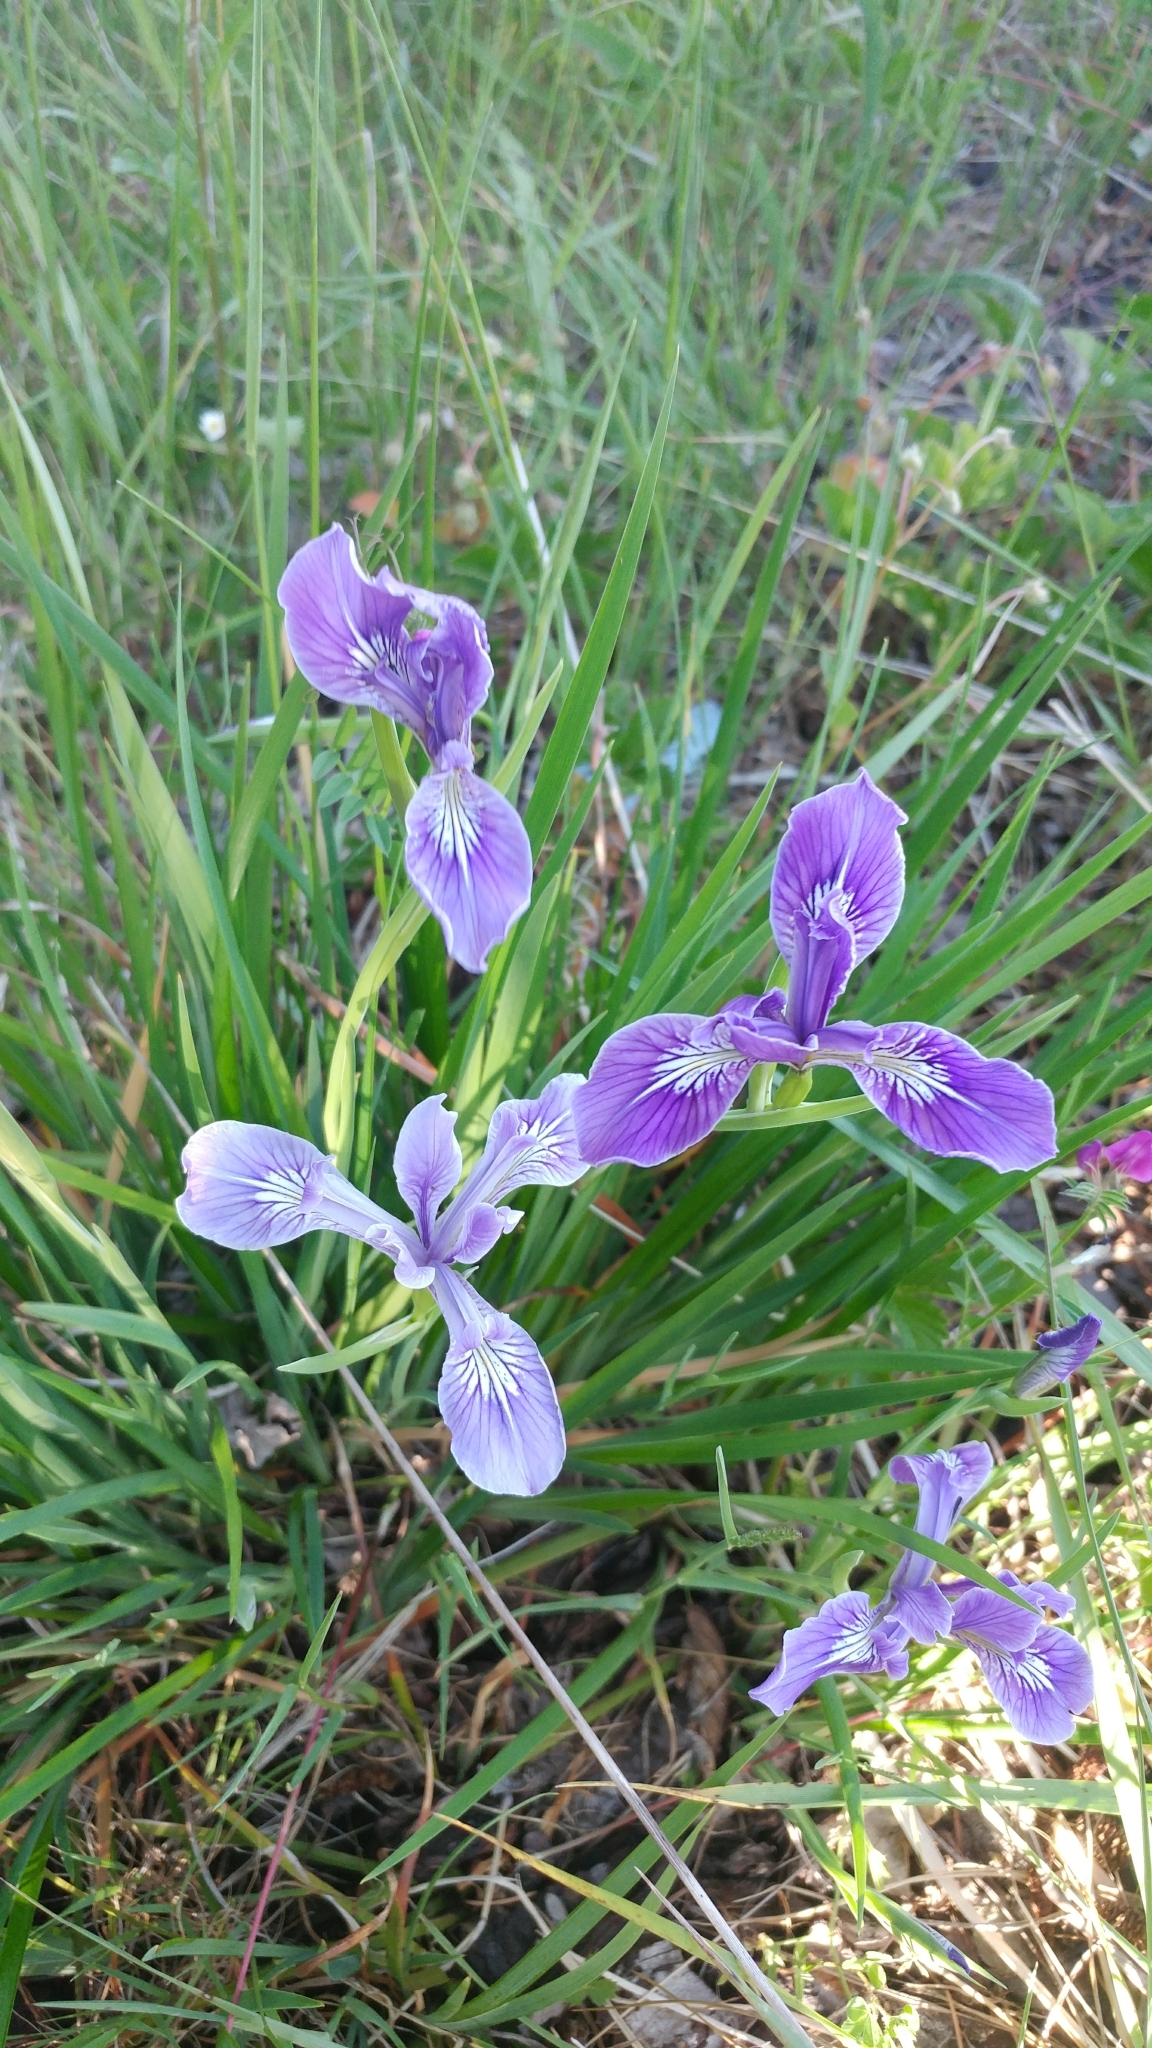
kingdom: Plantae
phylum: Tracheophyta
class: Liliopsida
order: Asparagales
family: Iridaceae
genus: Iris
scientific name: Iris tenax
